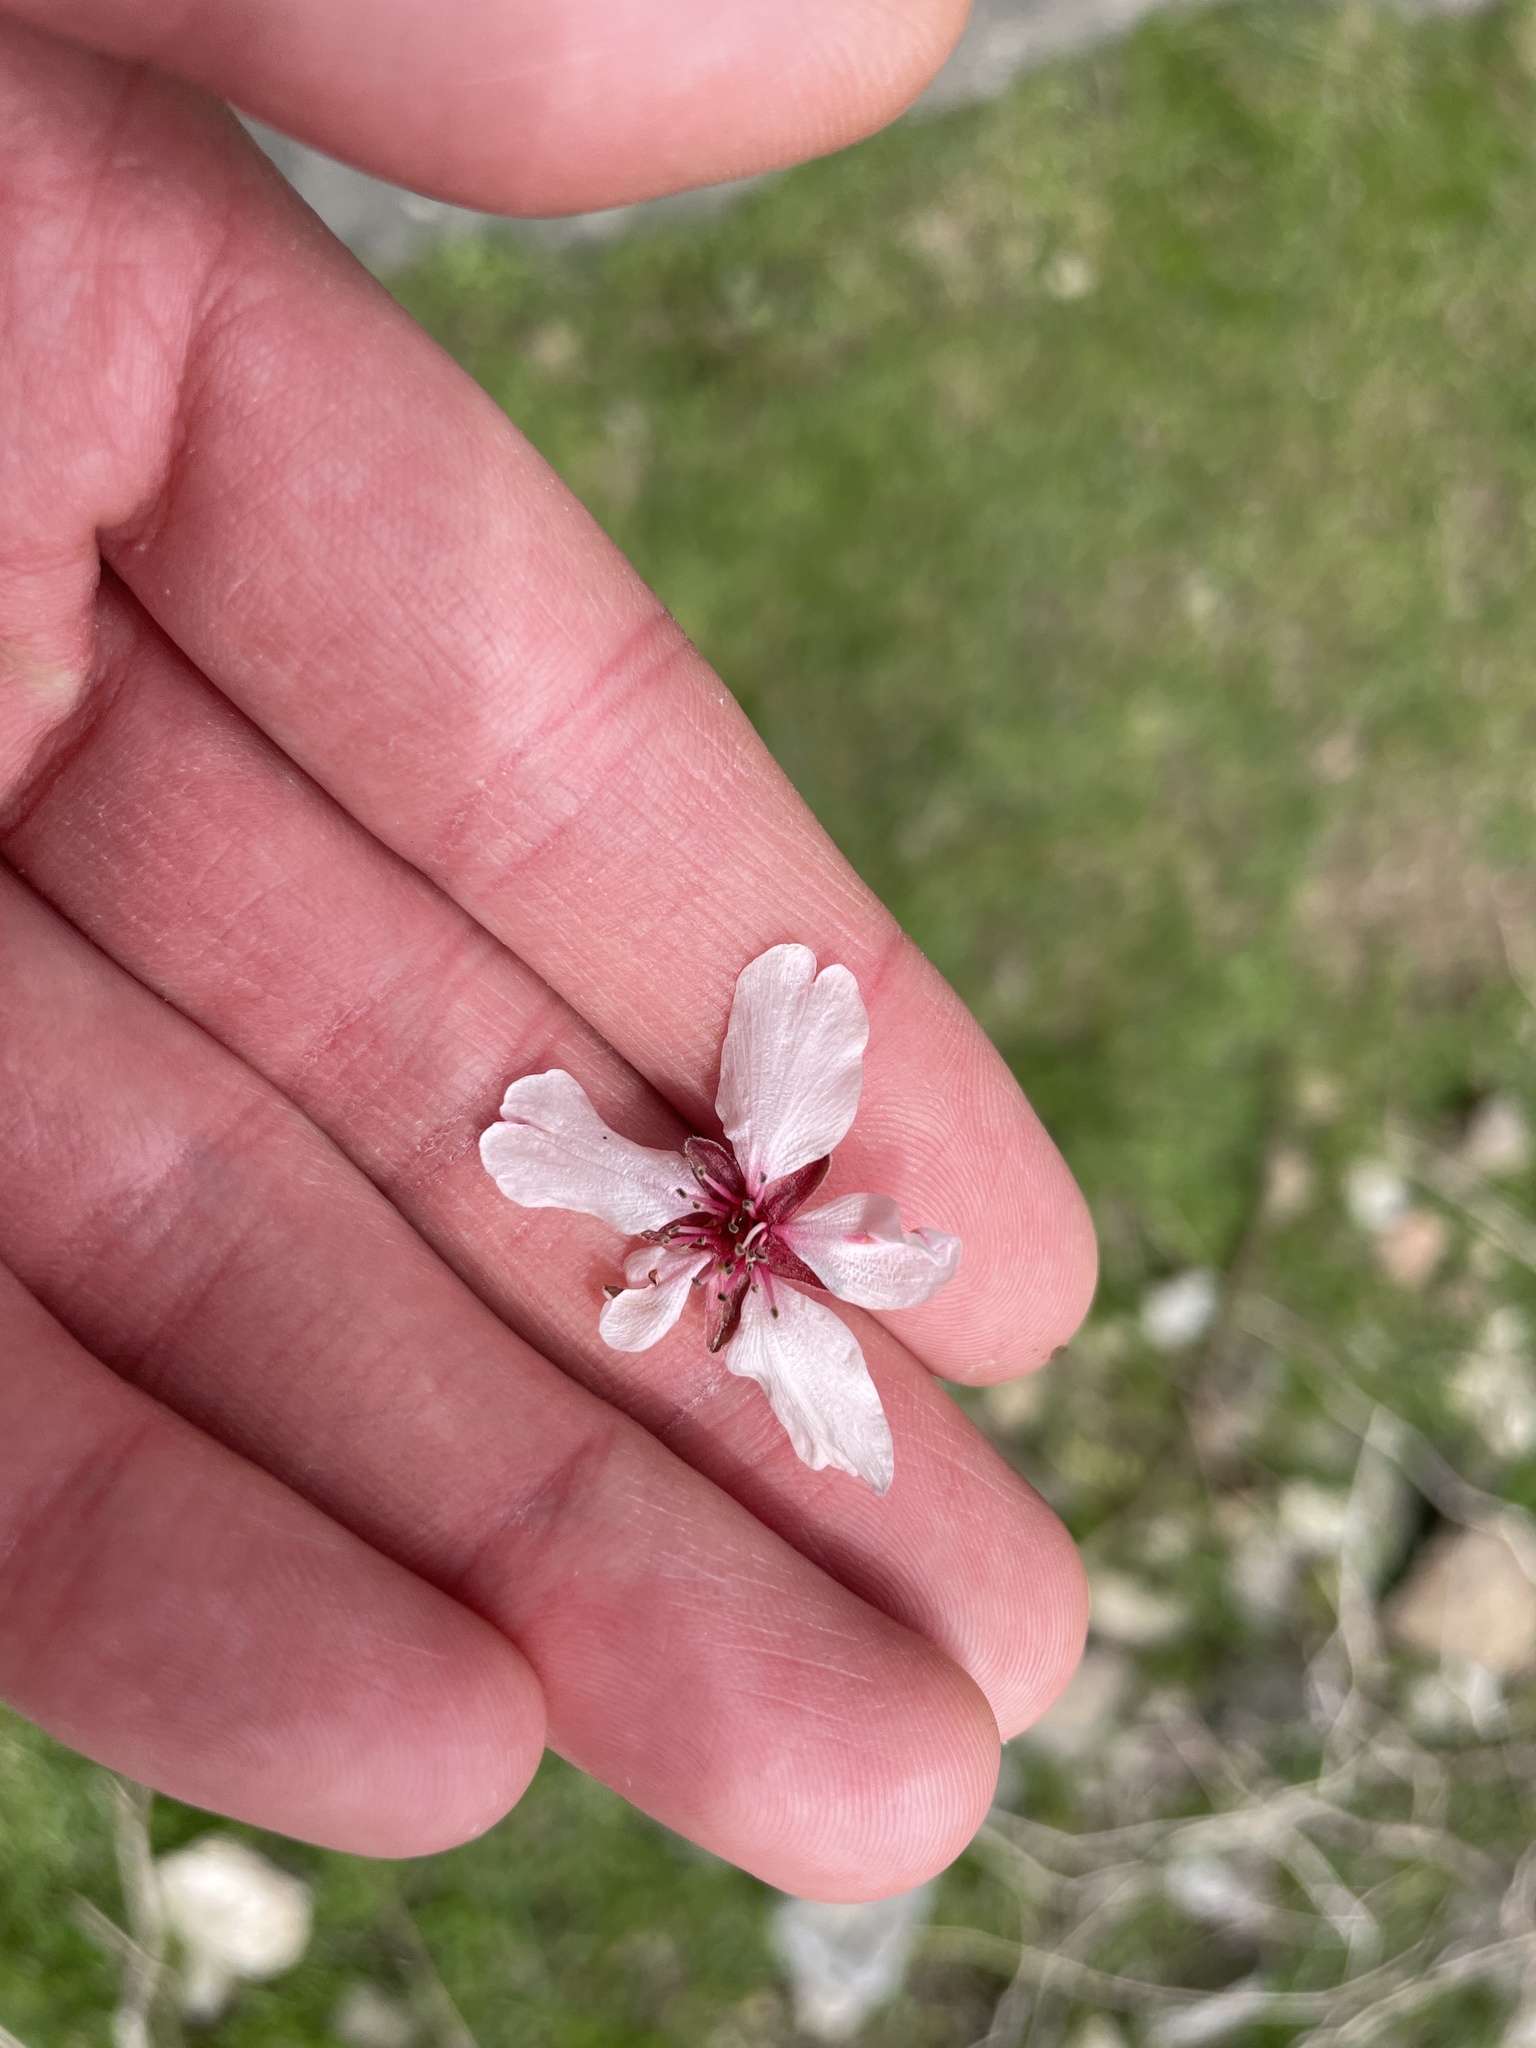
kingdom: Plantae
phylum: Tracheophyta
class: Magnoliopsida
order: Rosales
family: Rosaceae
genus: Prunus
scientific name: Prunus bucharica
